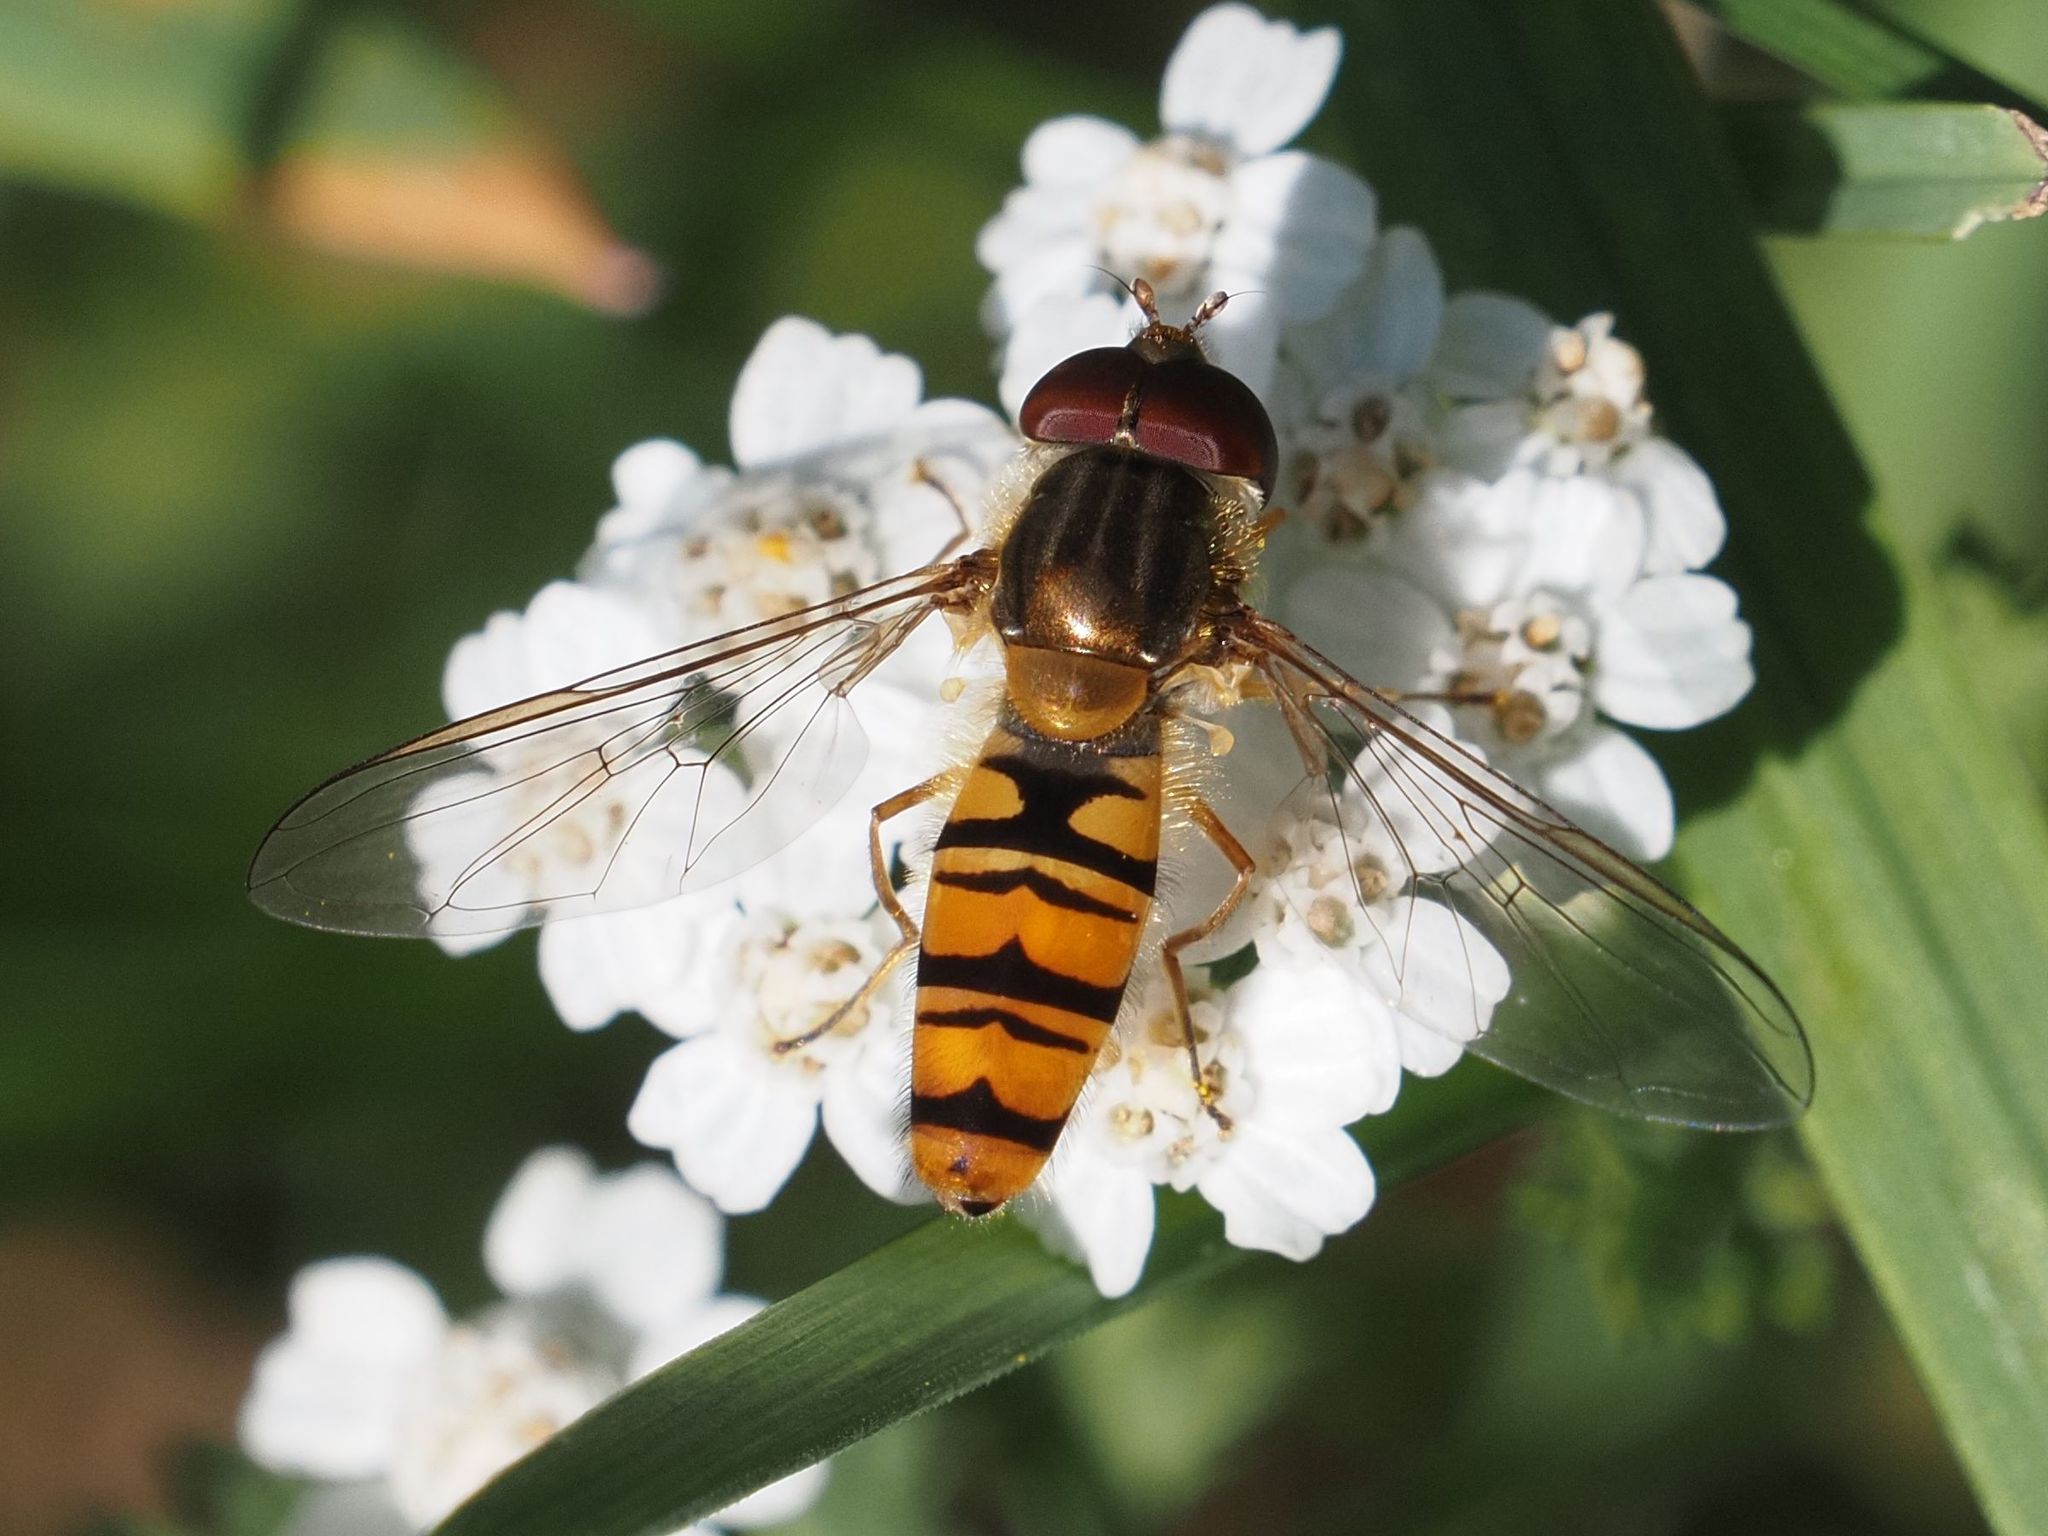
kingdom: Animalia
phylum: Arthropoda
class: Insecta
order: Diptera
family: Syrphidae
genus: Episyrphus
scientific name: Episyrphus balteatus
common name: Marmalade hoverfly
